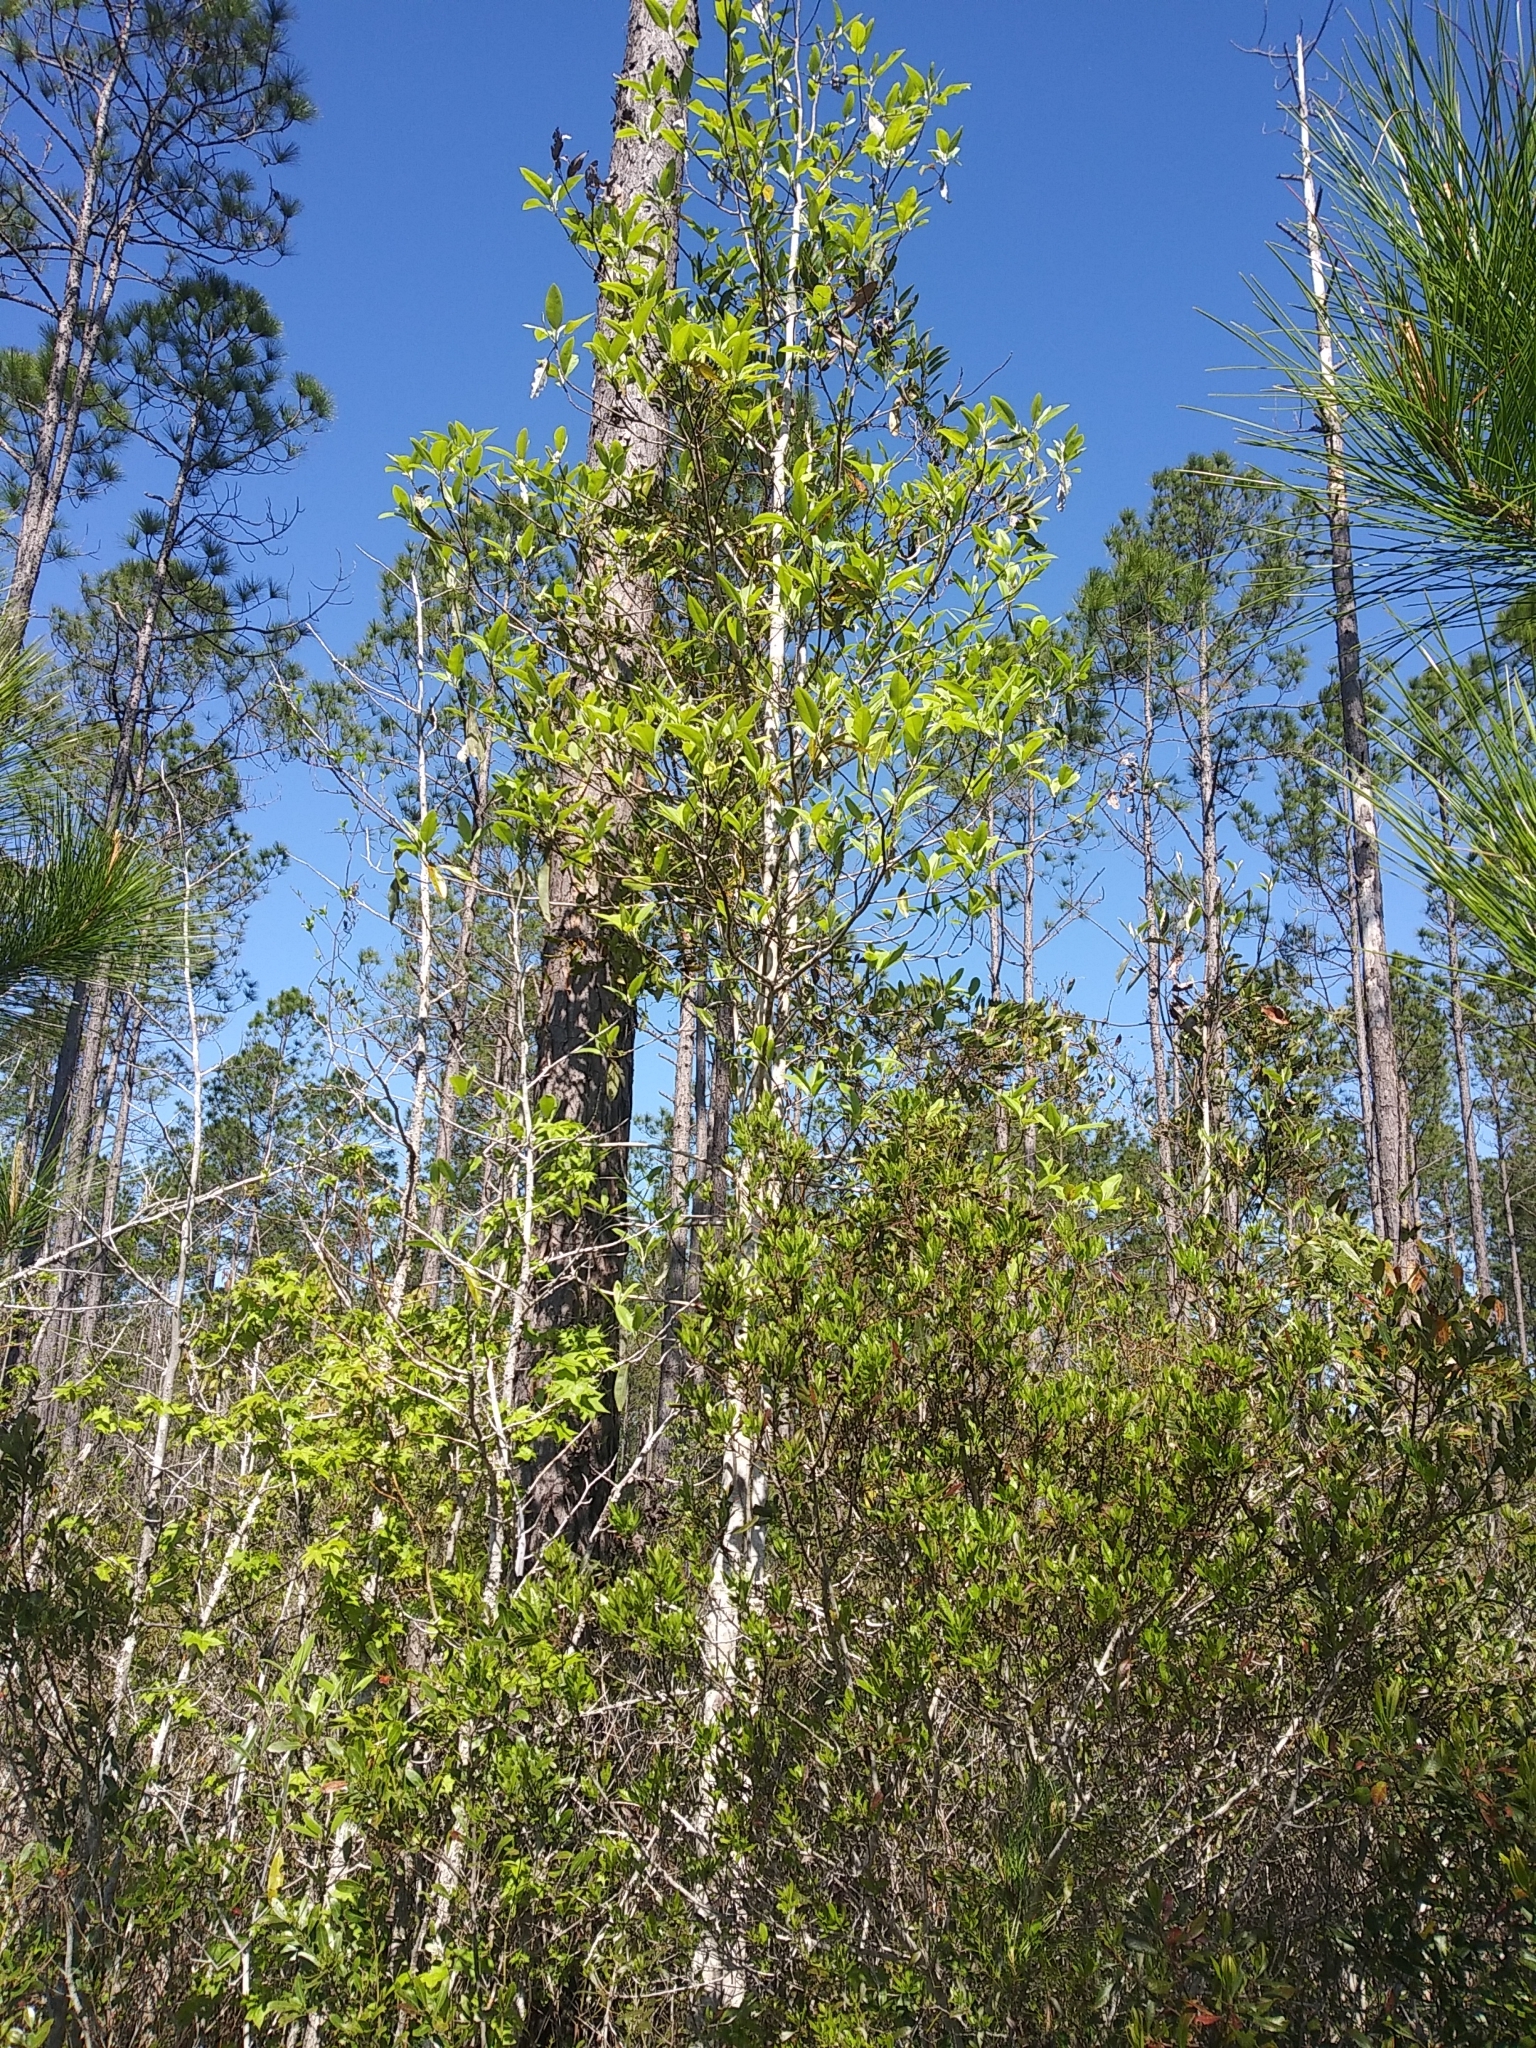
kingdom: Plantae
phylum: Tracheophyta
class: Magnoliopsida
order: Magnoliales
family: Magnoliaceae
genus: Magnolia
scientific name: Magnolia virginiana
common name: Swamp bay
